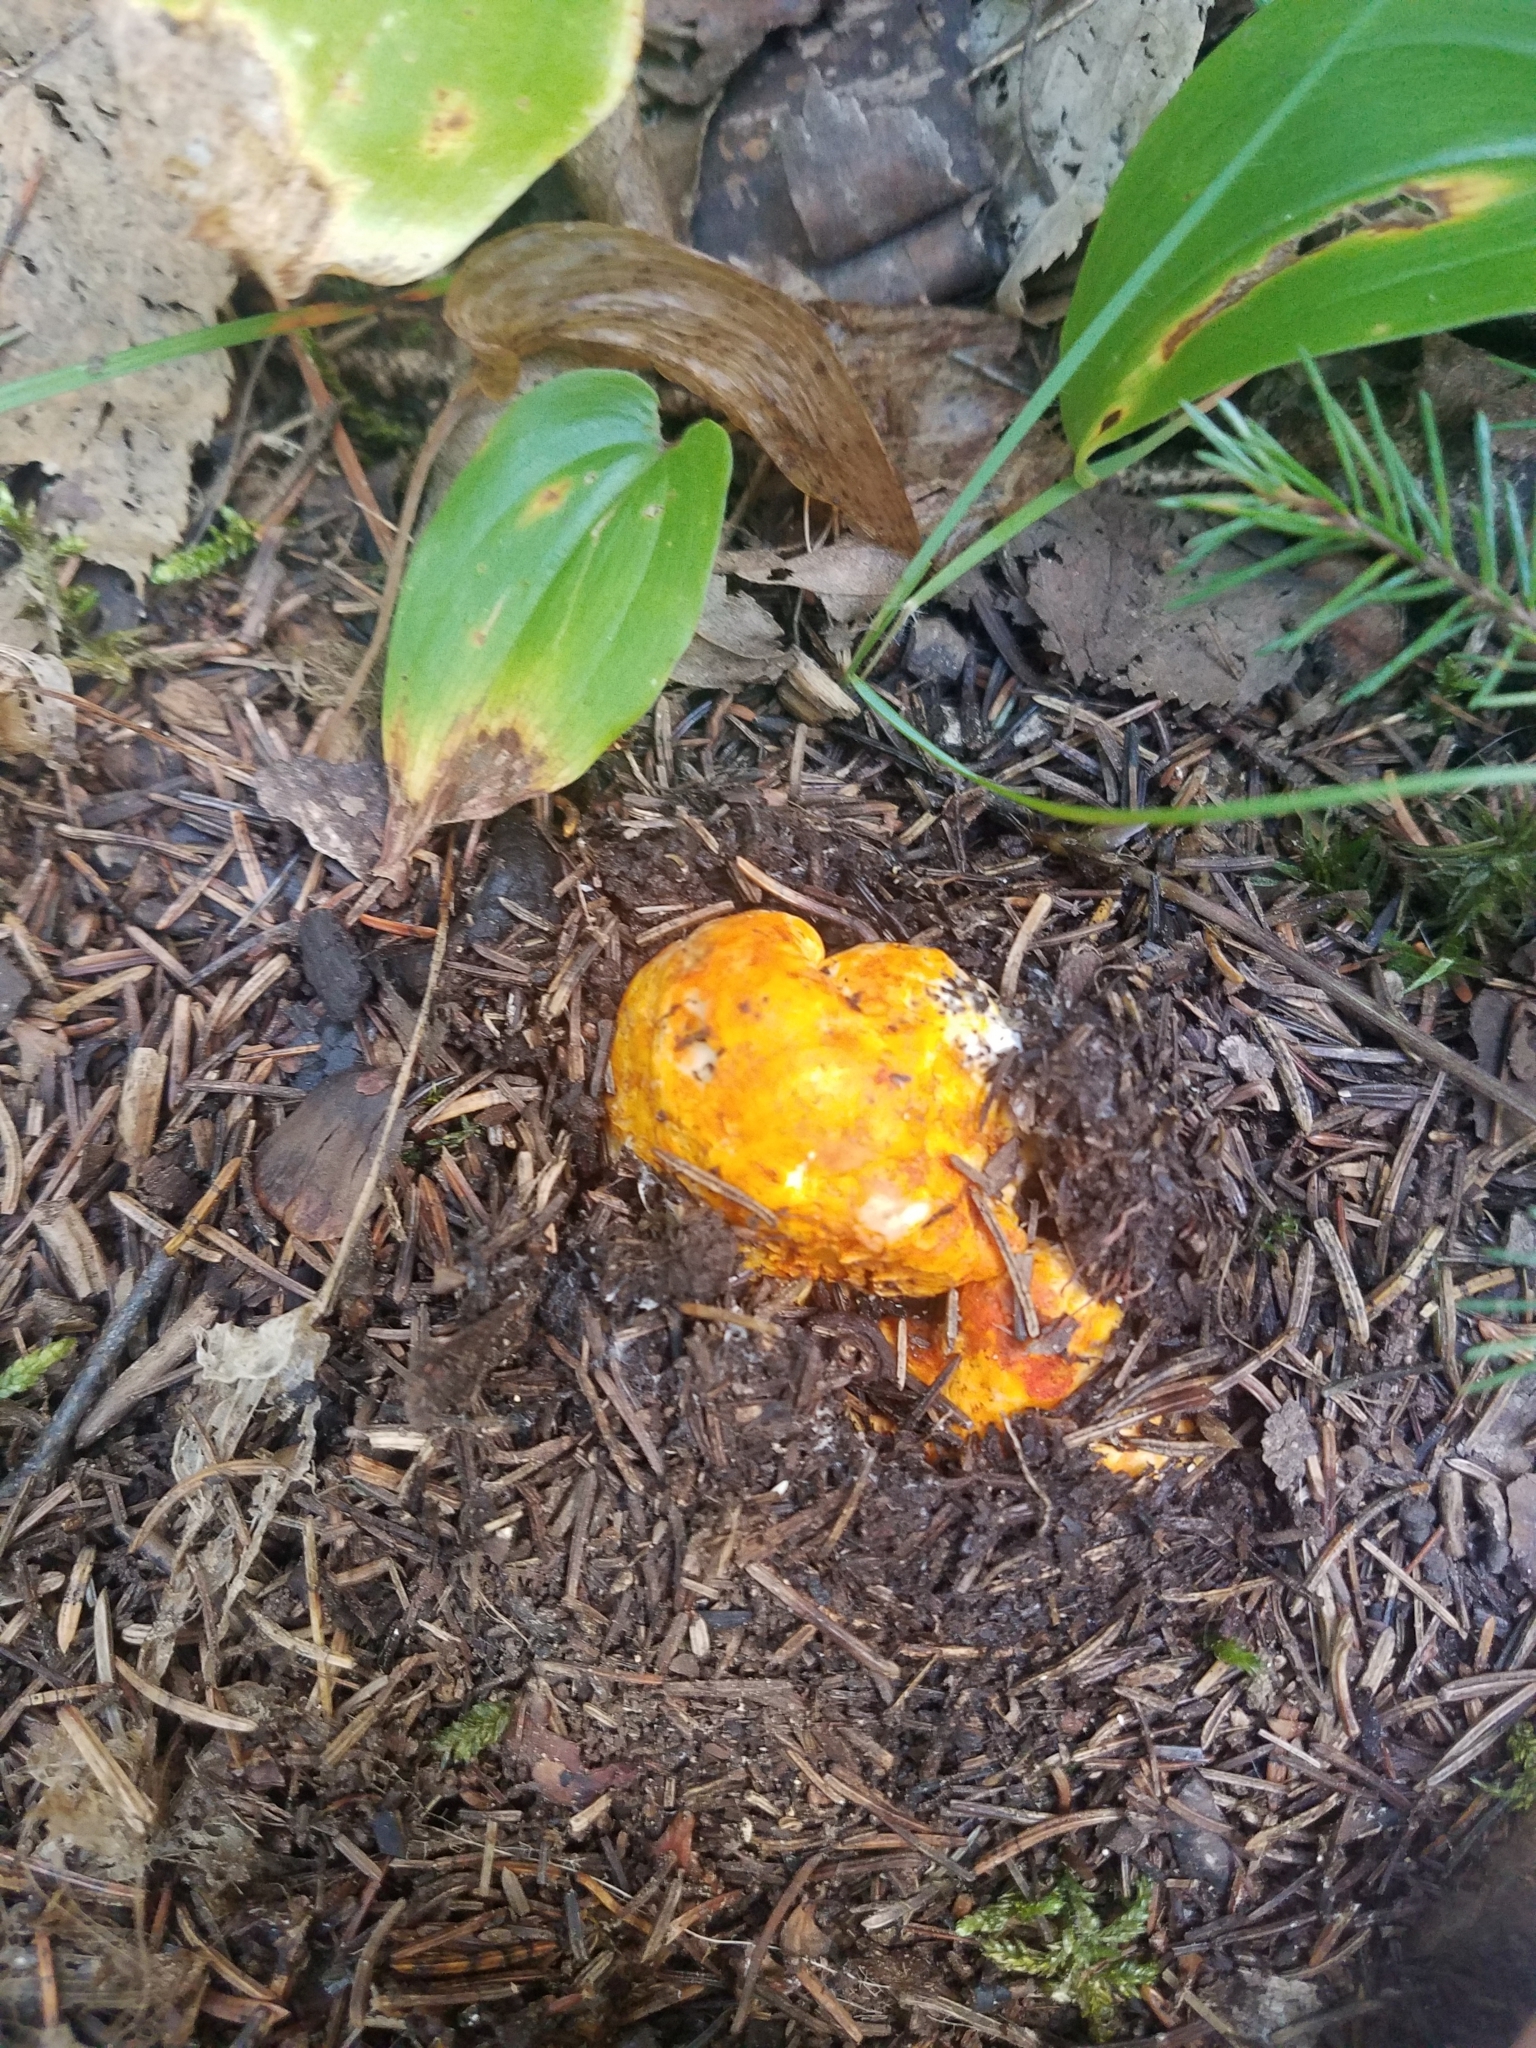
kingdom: Fungi
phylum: Ascomycota
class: Sordariomycetes
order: Hypocreales
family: Hypocreaceae
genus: Hypomyces
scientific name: Hypomyces lactifluorum
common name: Lobster mushroom
